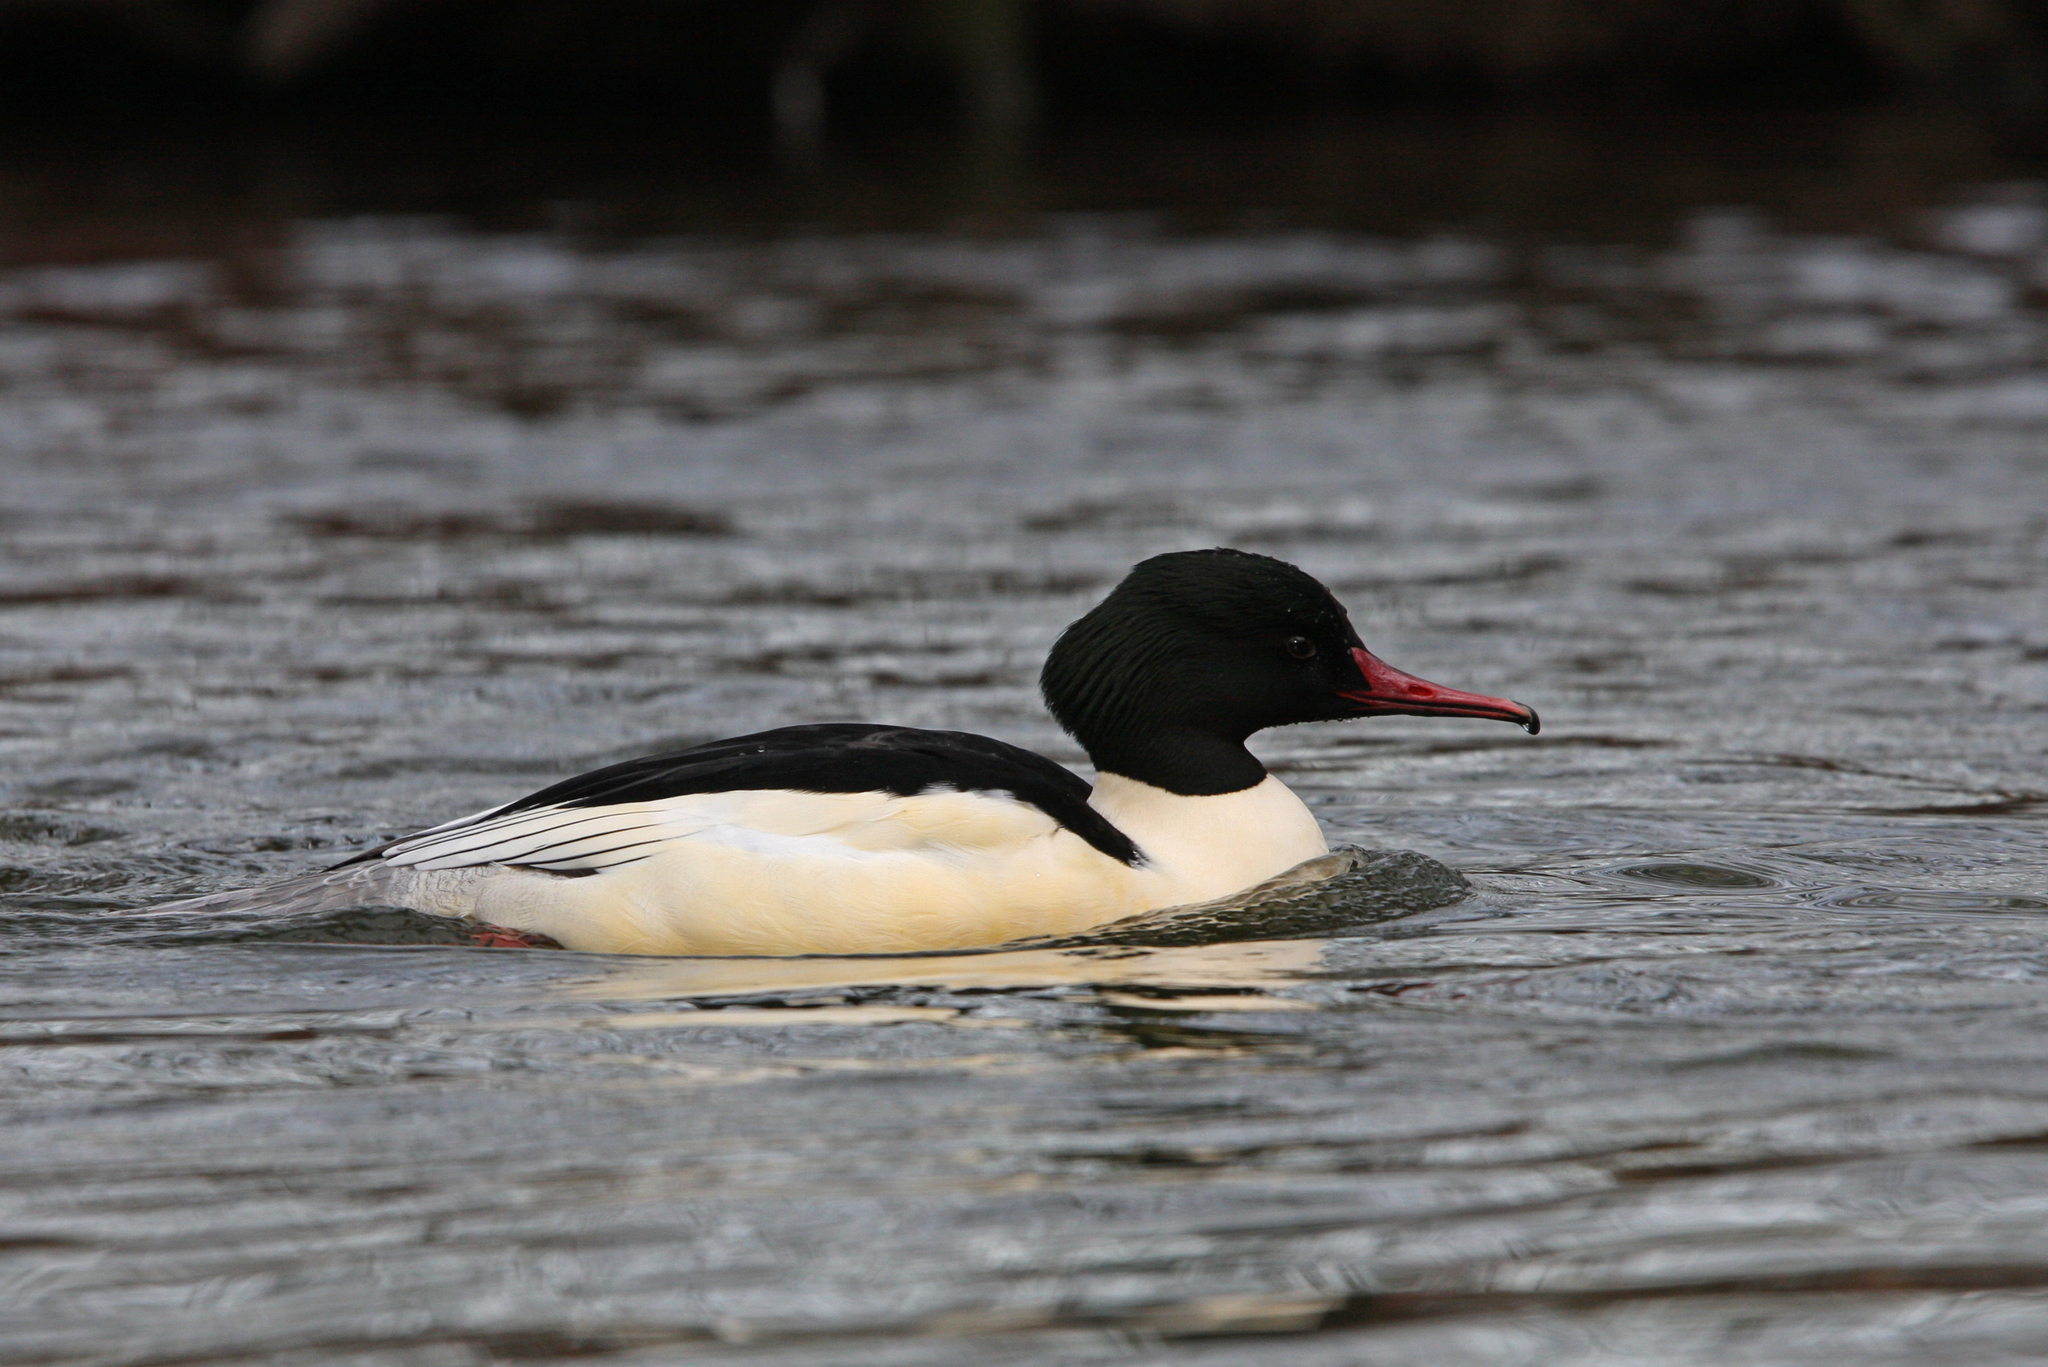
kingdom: Animalia
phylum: Chordata
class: Aves
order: Anseriformes
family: Anatidae
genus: Mergus
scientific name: Mergus merganser
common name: Common merganser
